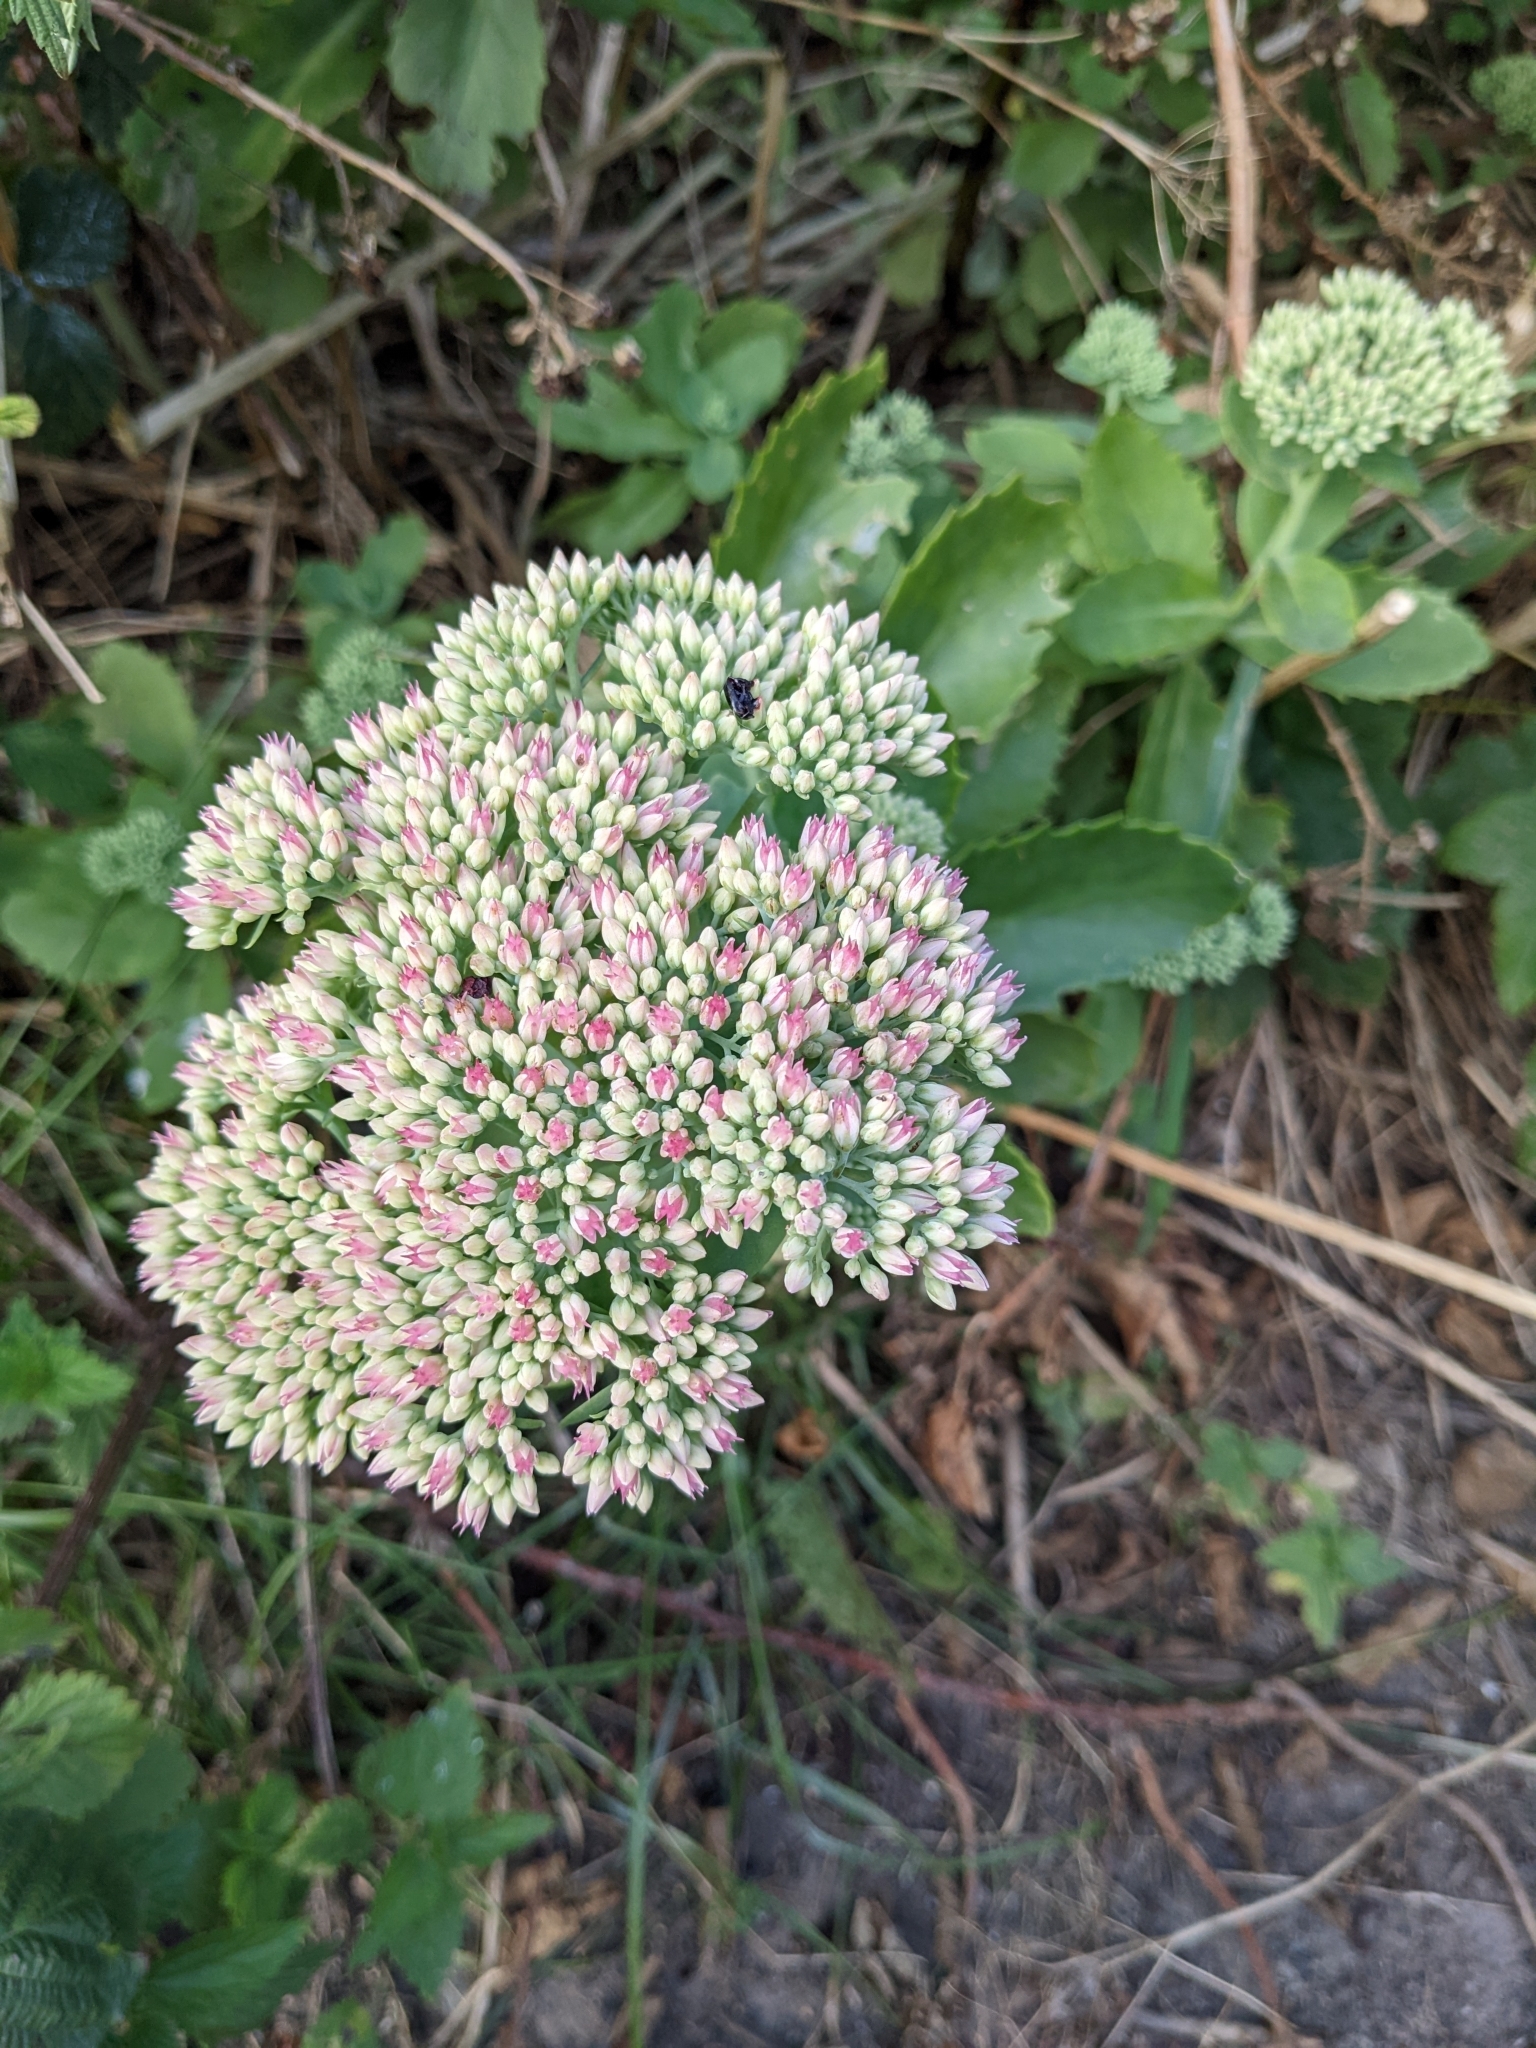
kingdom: Plantae
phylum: Tracheophyta
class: Magnoliopsida
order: Saxifragales
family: Crassulaceae
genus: Hylotelephium
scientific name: Hylotelephium
